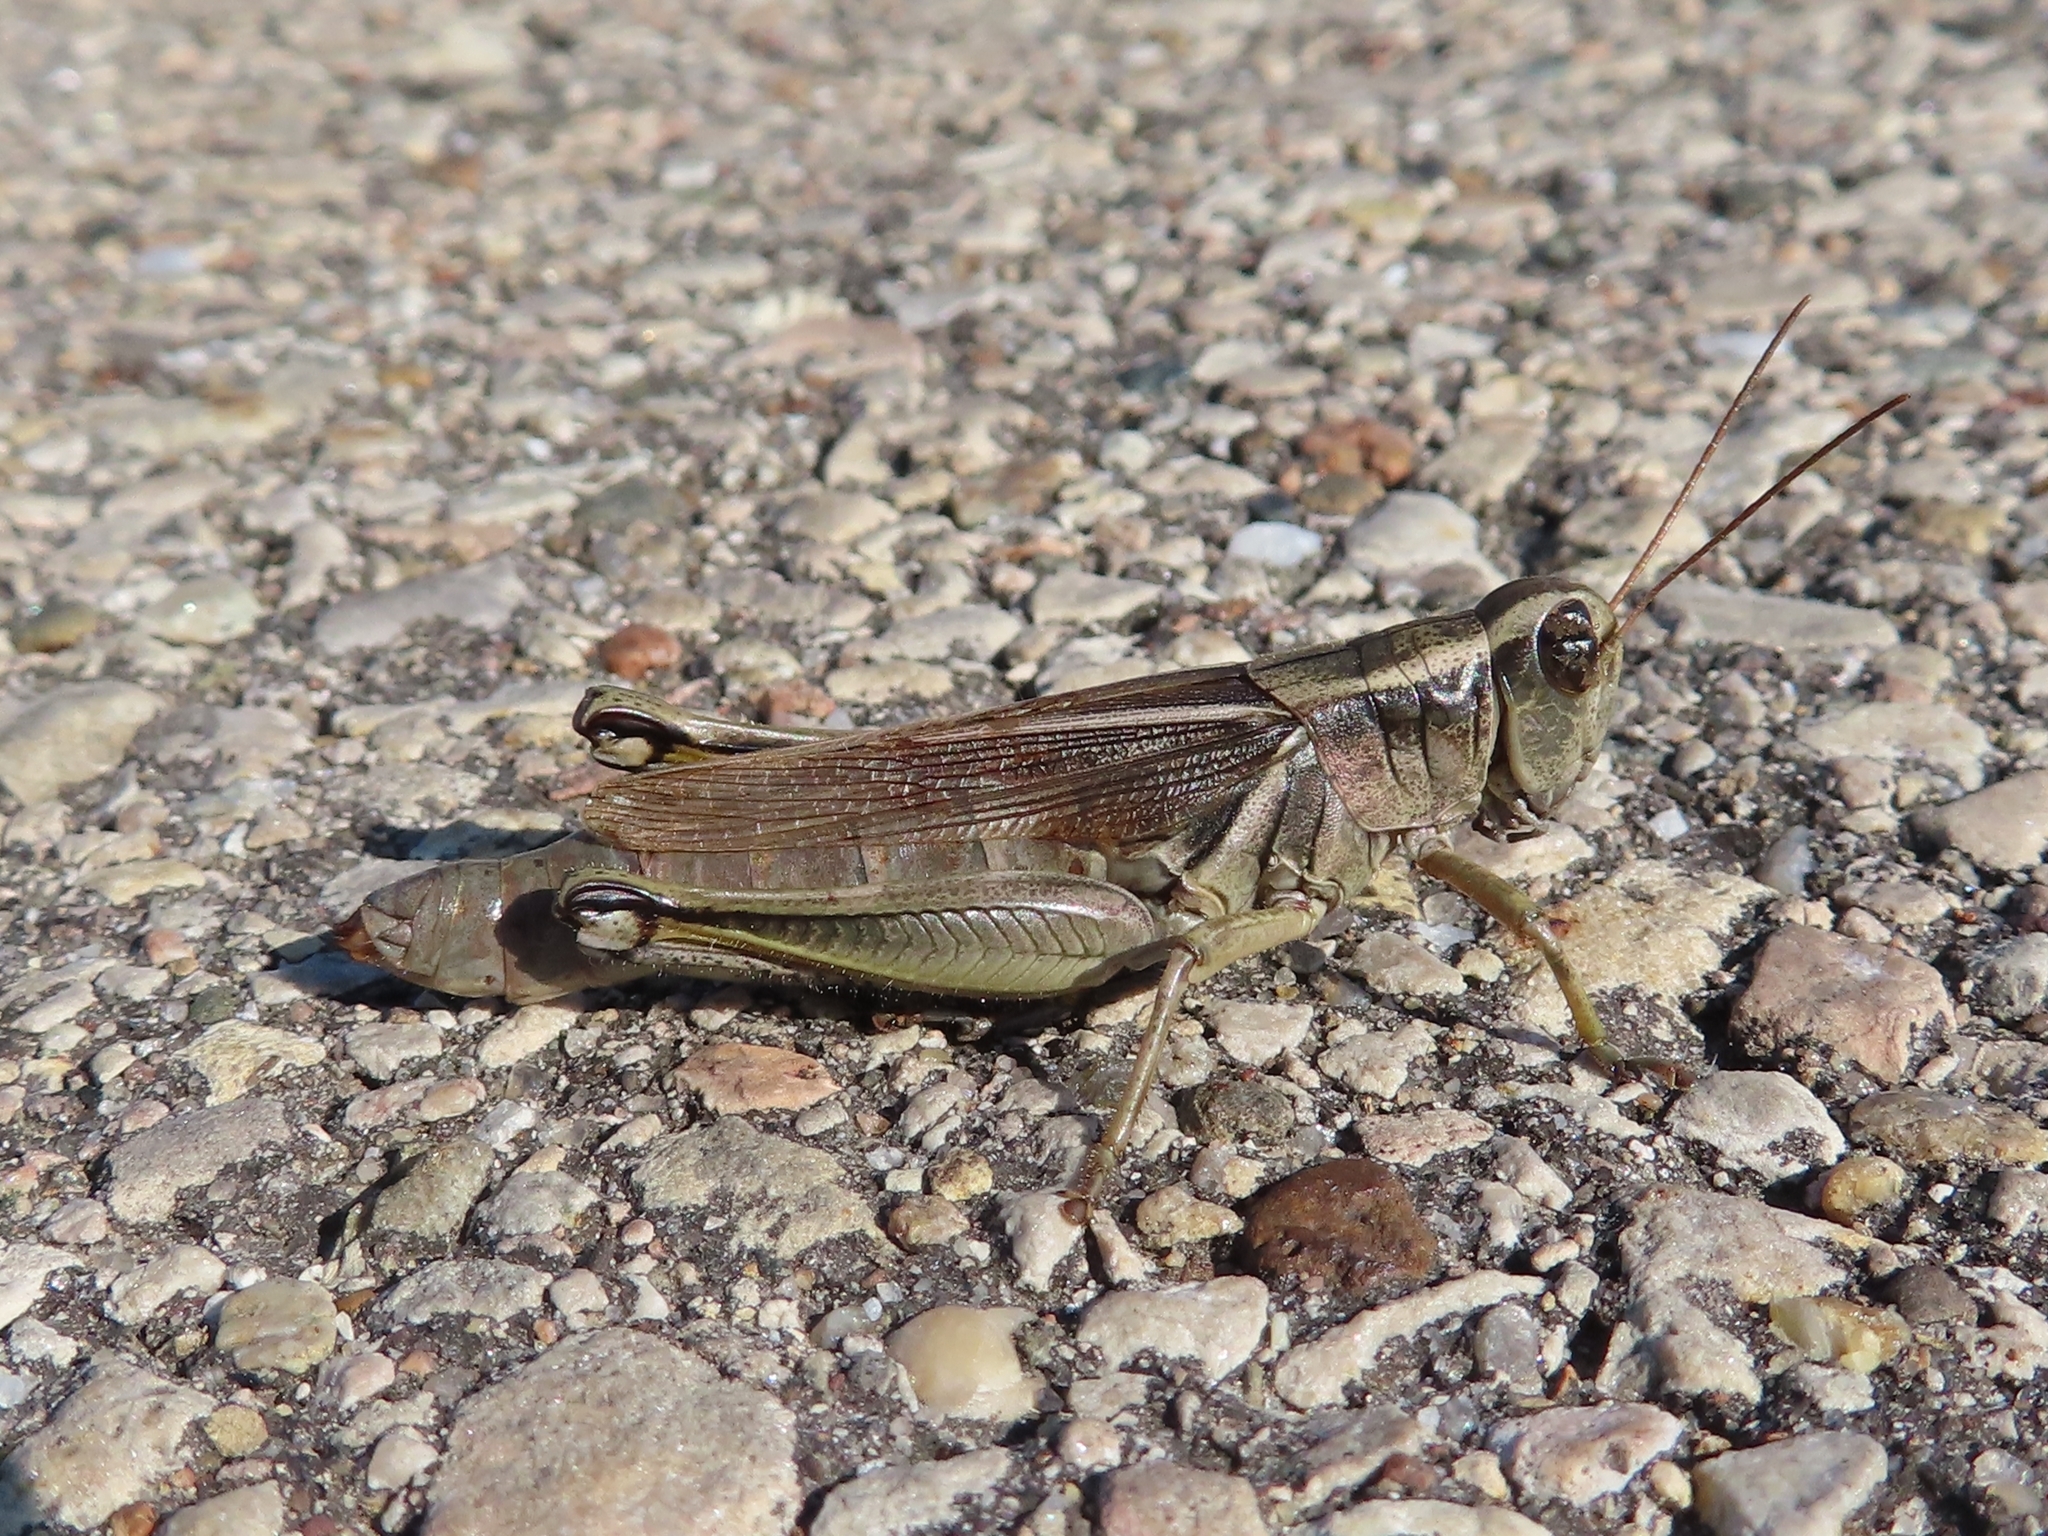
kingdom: Animalia
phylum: Arthropoda
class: Insecta
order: Orthoptera
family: Acrididae
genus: Melanoplus
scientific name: Melanoplus bivittatus
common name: Two-striped grasshopper
